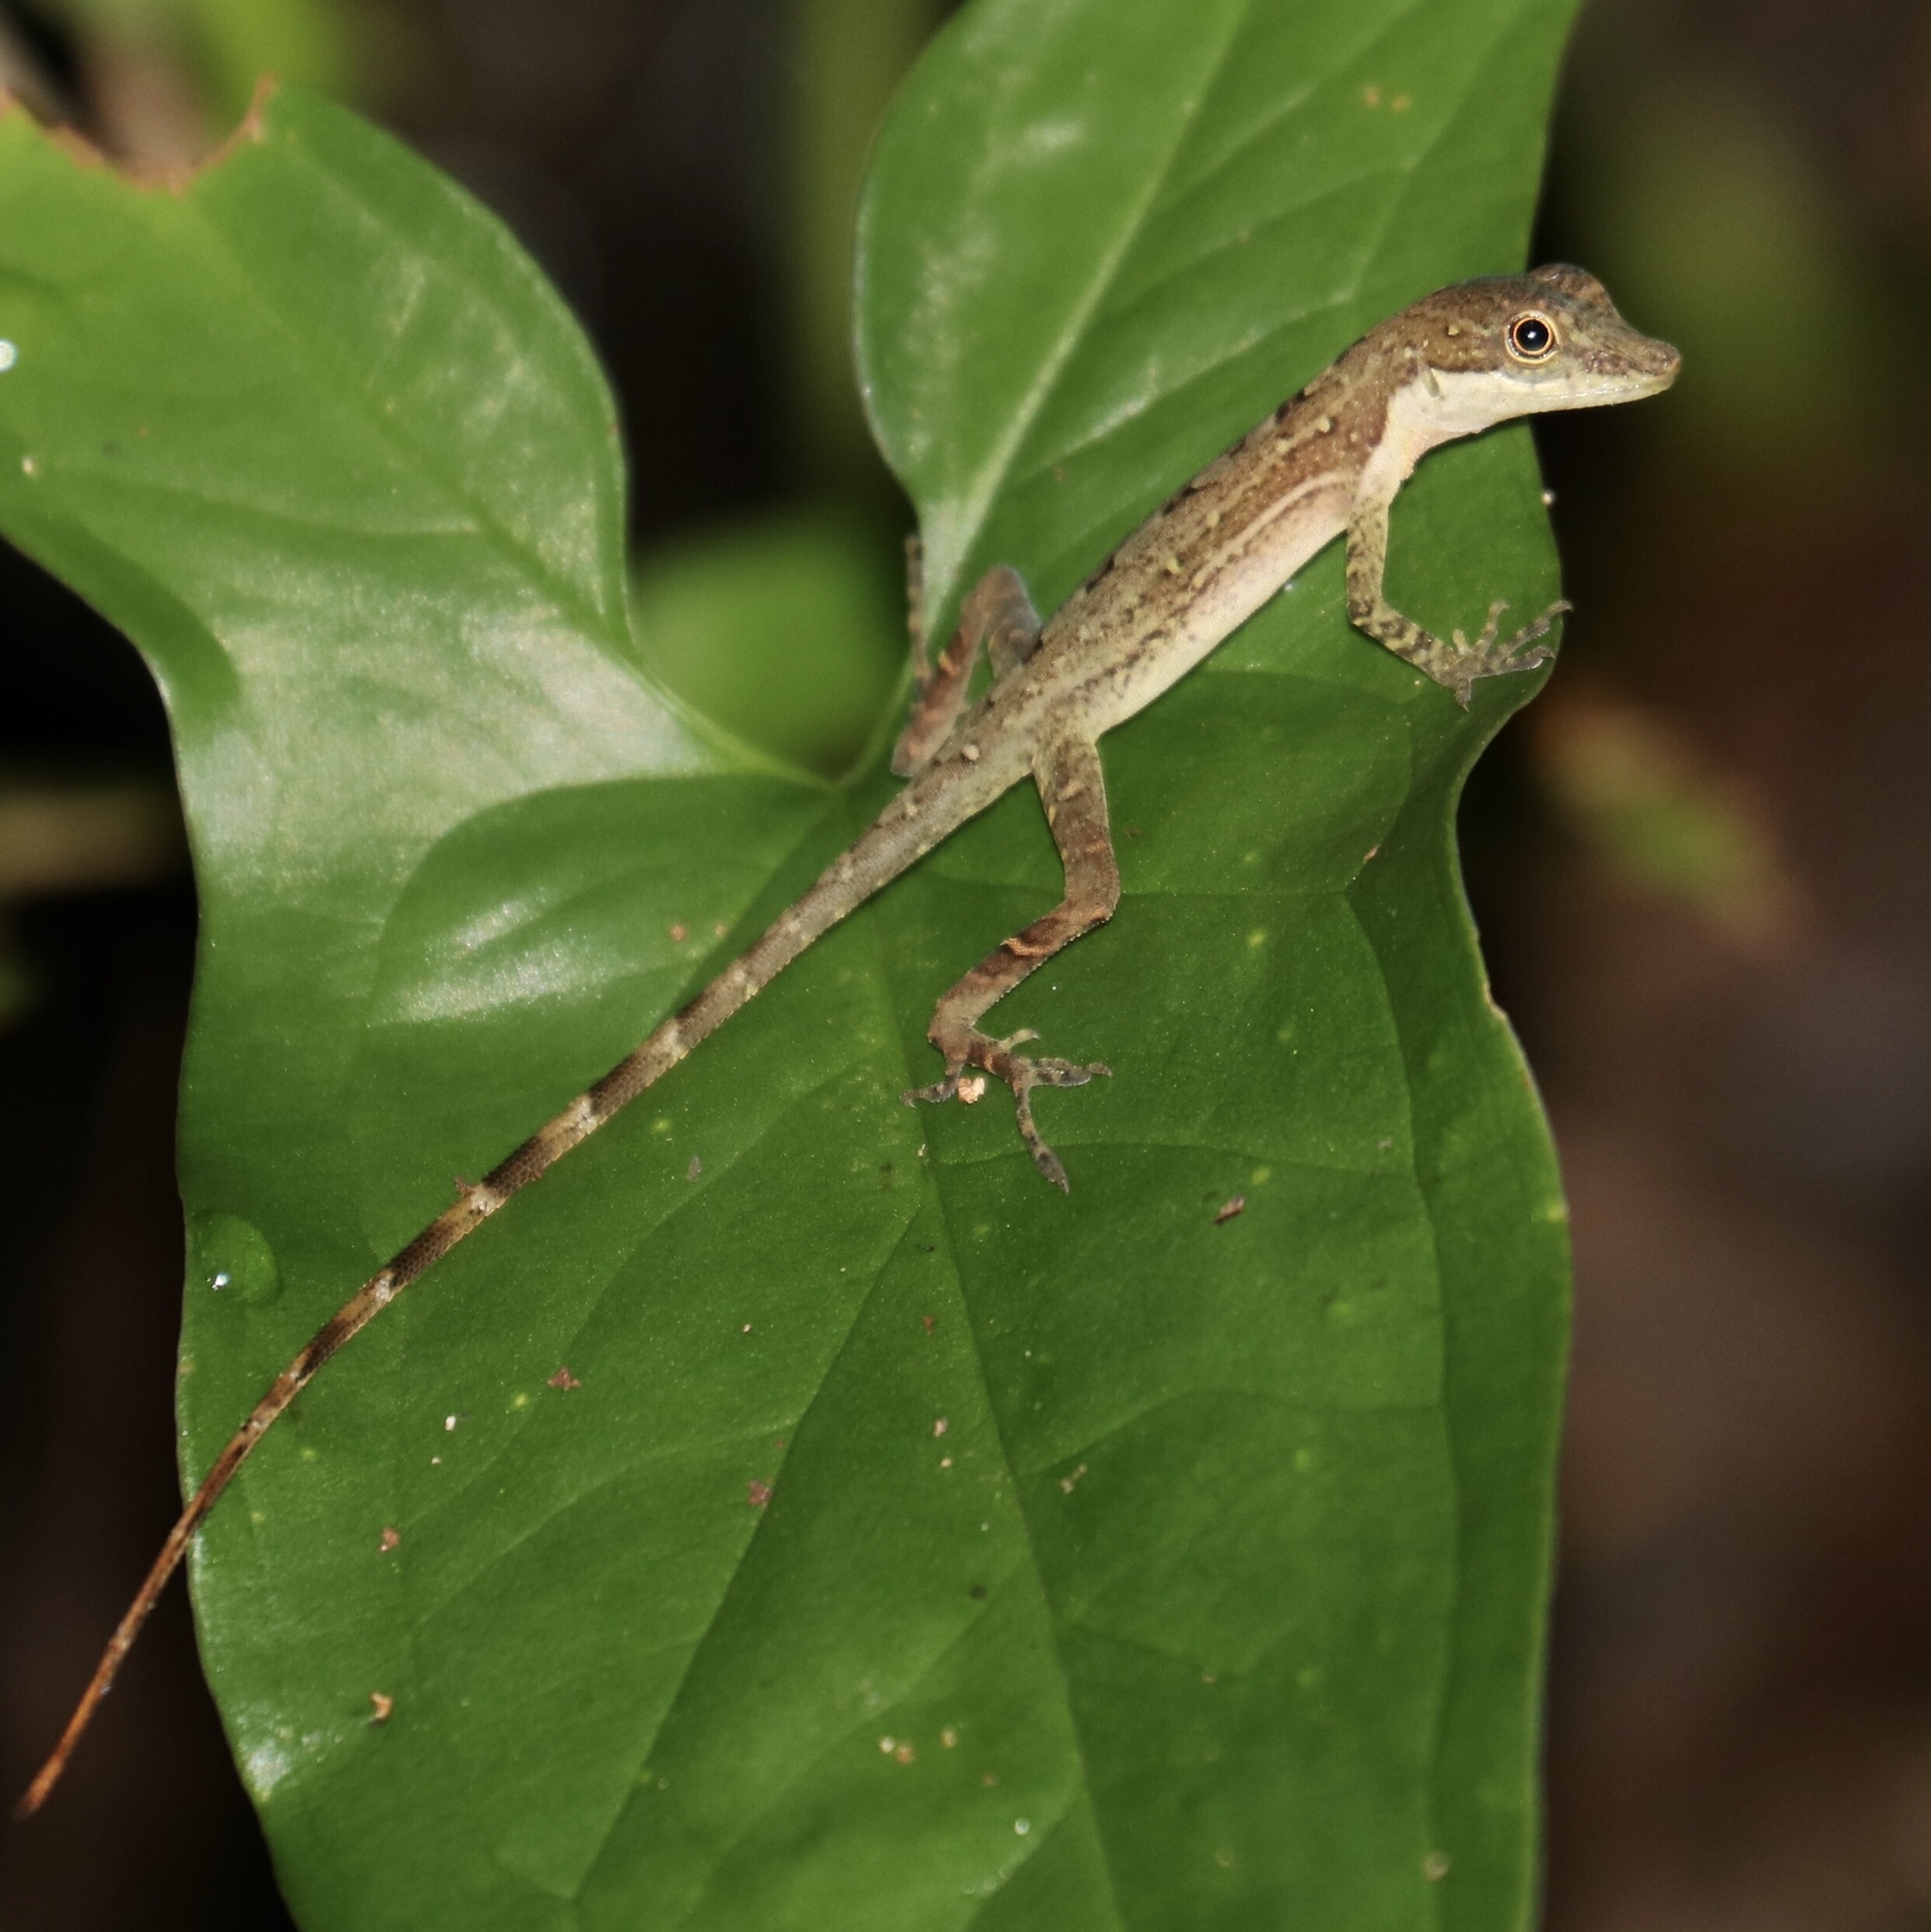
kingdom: Animalia
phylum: Chordata
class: Squamata
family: Dactyloidae
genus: Anolis
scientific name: Anolis apletophallus
